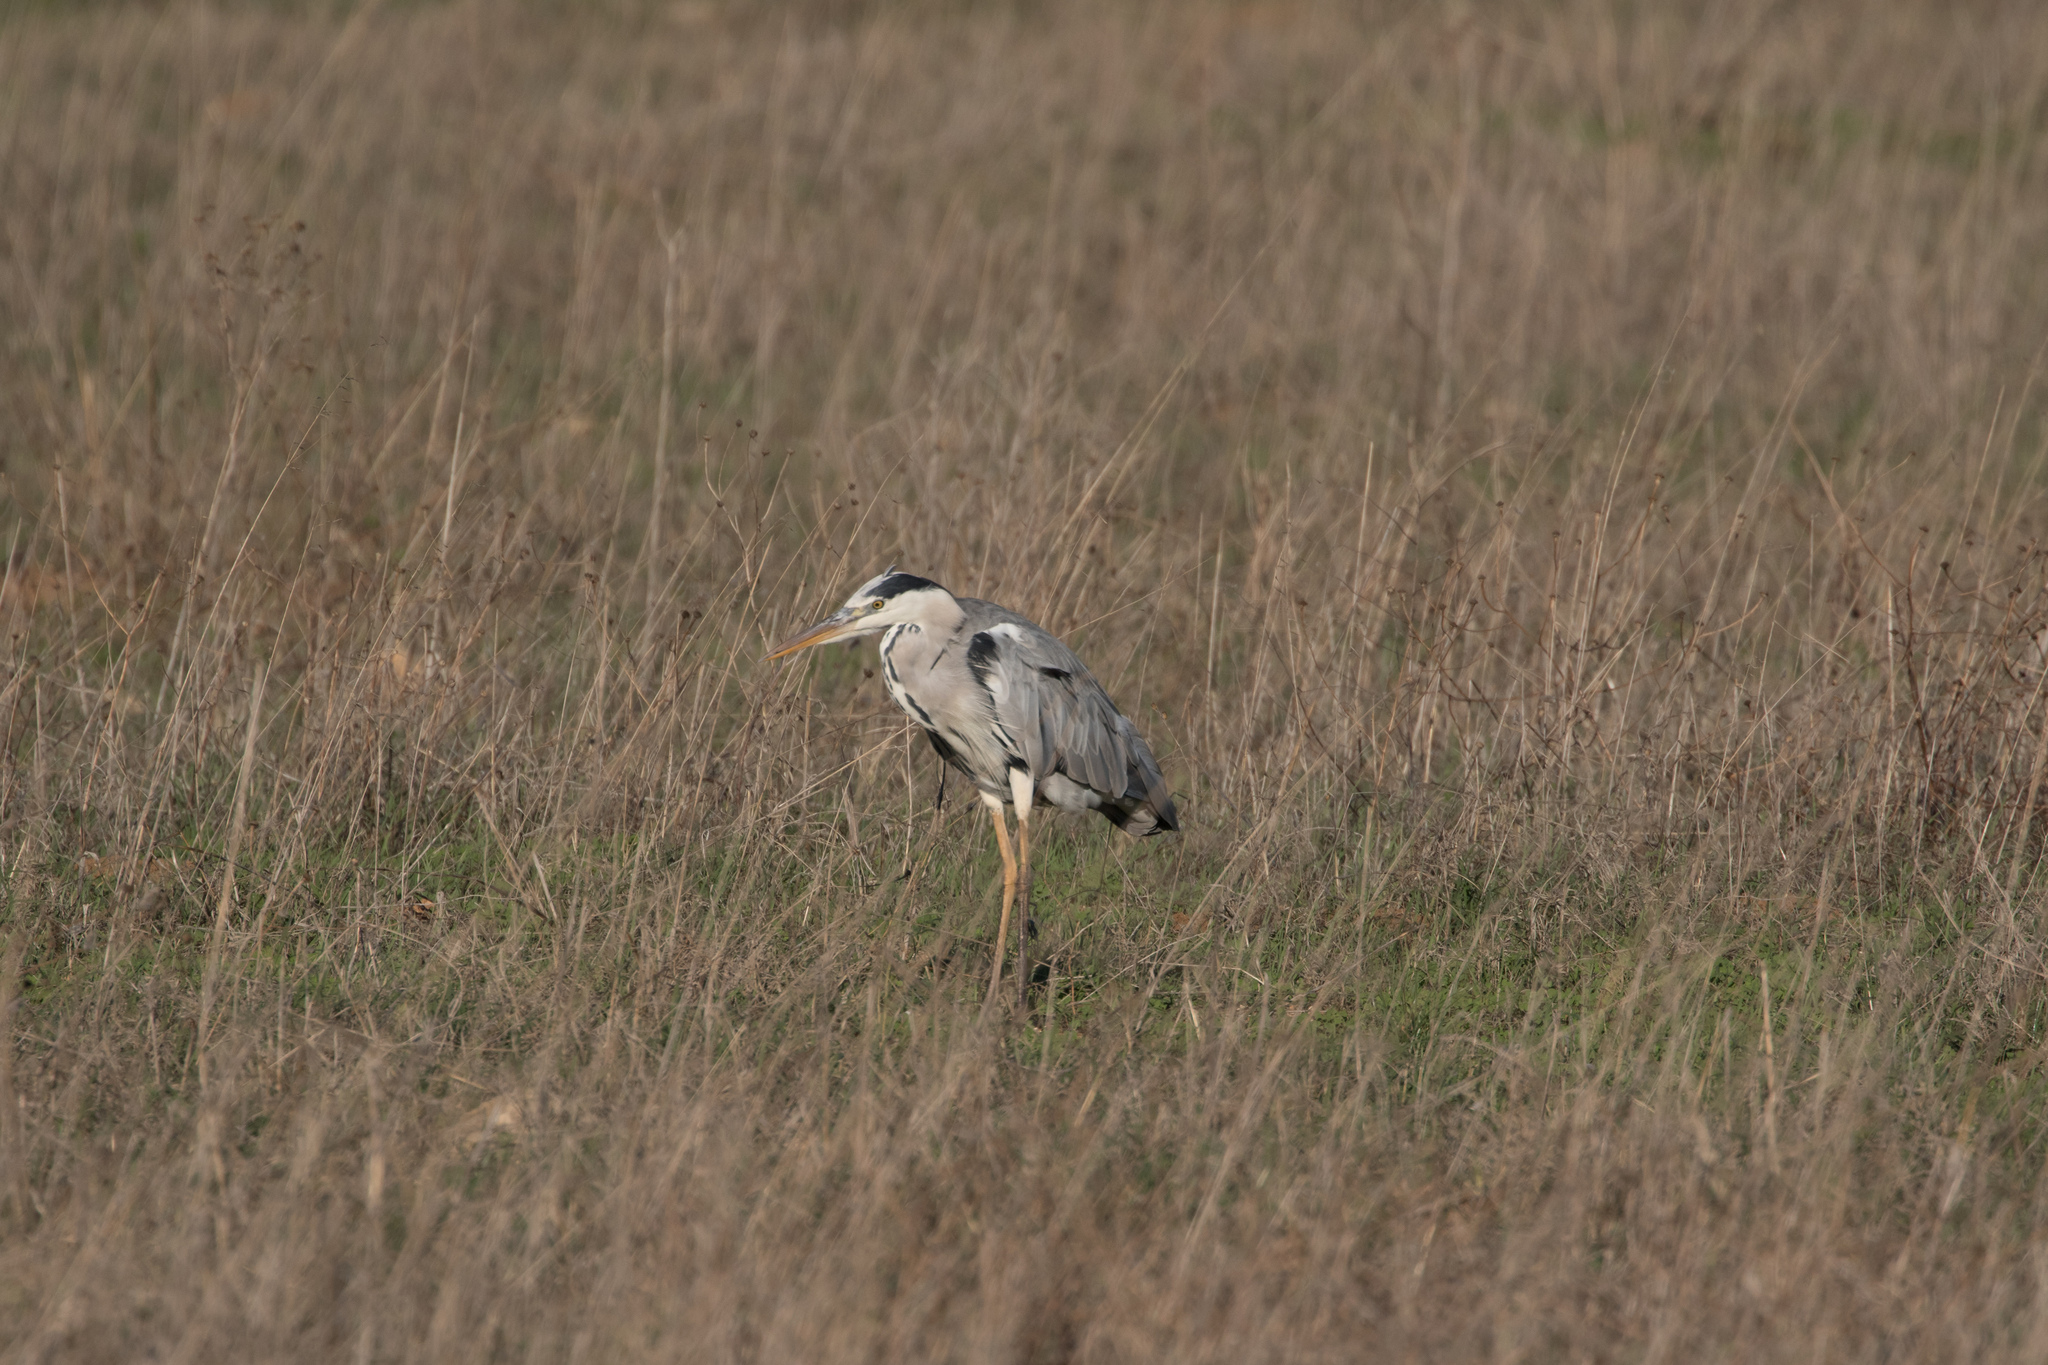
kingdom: Animalia
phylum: Chordata
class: Aves
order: Pelecaniformes
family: Ardeidae
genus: Ardea
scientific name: Ardea cinerea
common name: Grey heron
